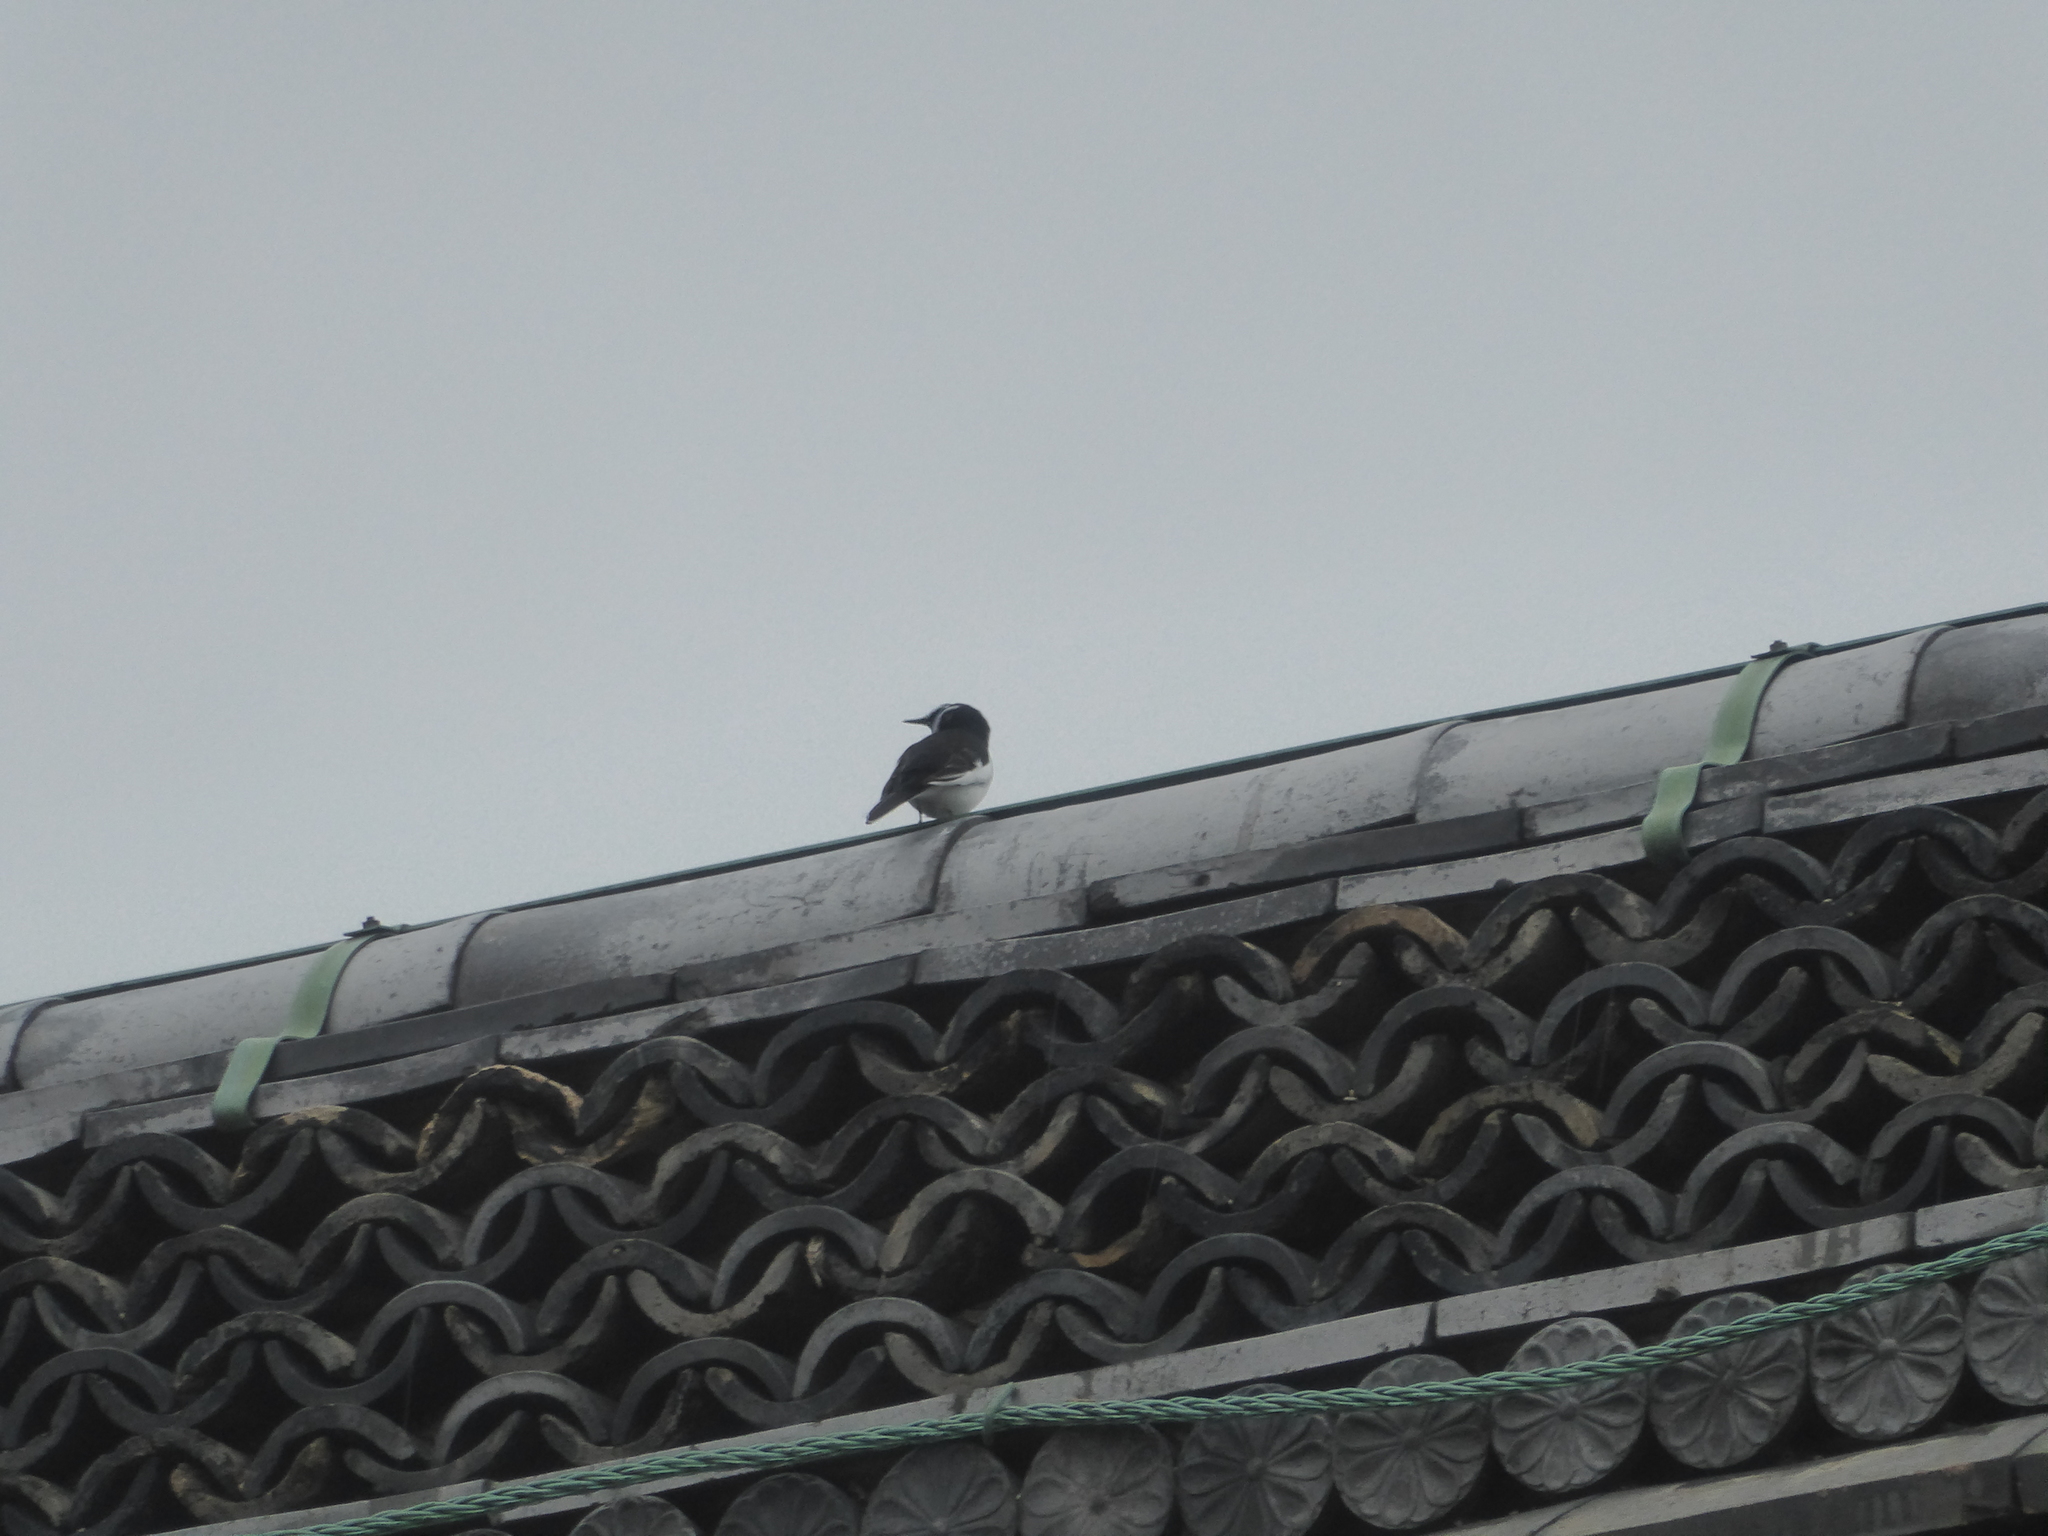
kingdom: Animalia
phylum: Chordata
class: Aves
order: Passeriformes
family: Motacillidae
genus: Motacilla
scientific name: Motacilla grandis
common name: Japanese wagtail
